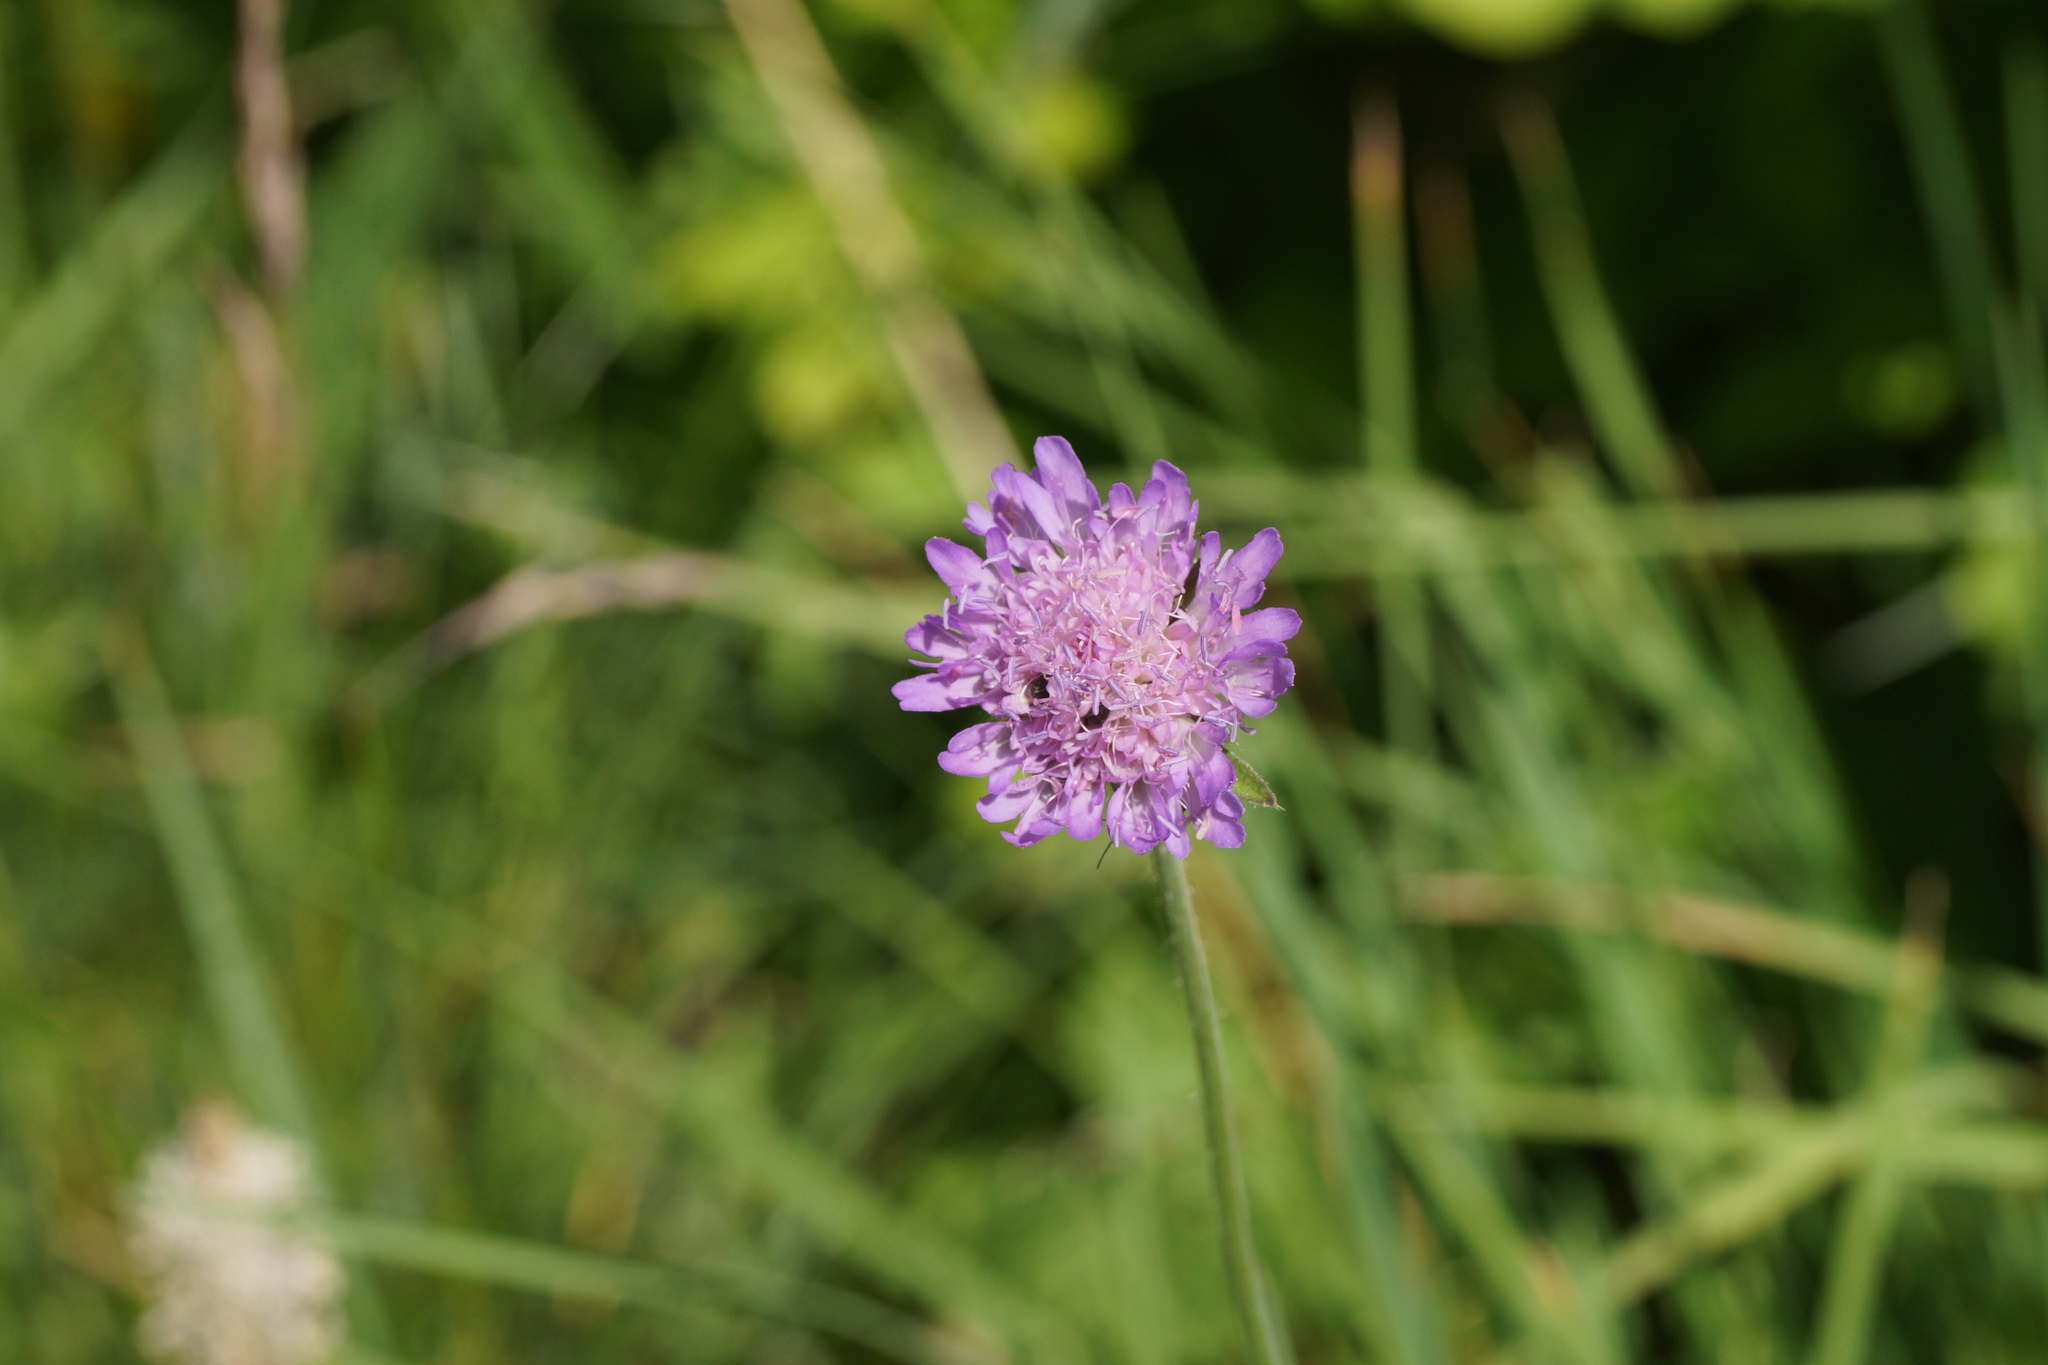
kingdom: Plantae
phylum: Tracheophyta
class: Magnoliopsida
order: Dipsacales
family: Caprifoliaceae
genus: Knautia
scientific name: Knautia arvensis
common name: Field scabiosa
